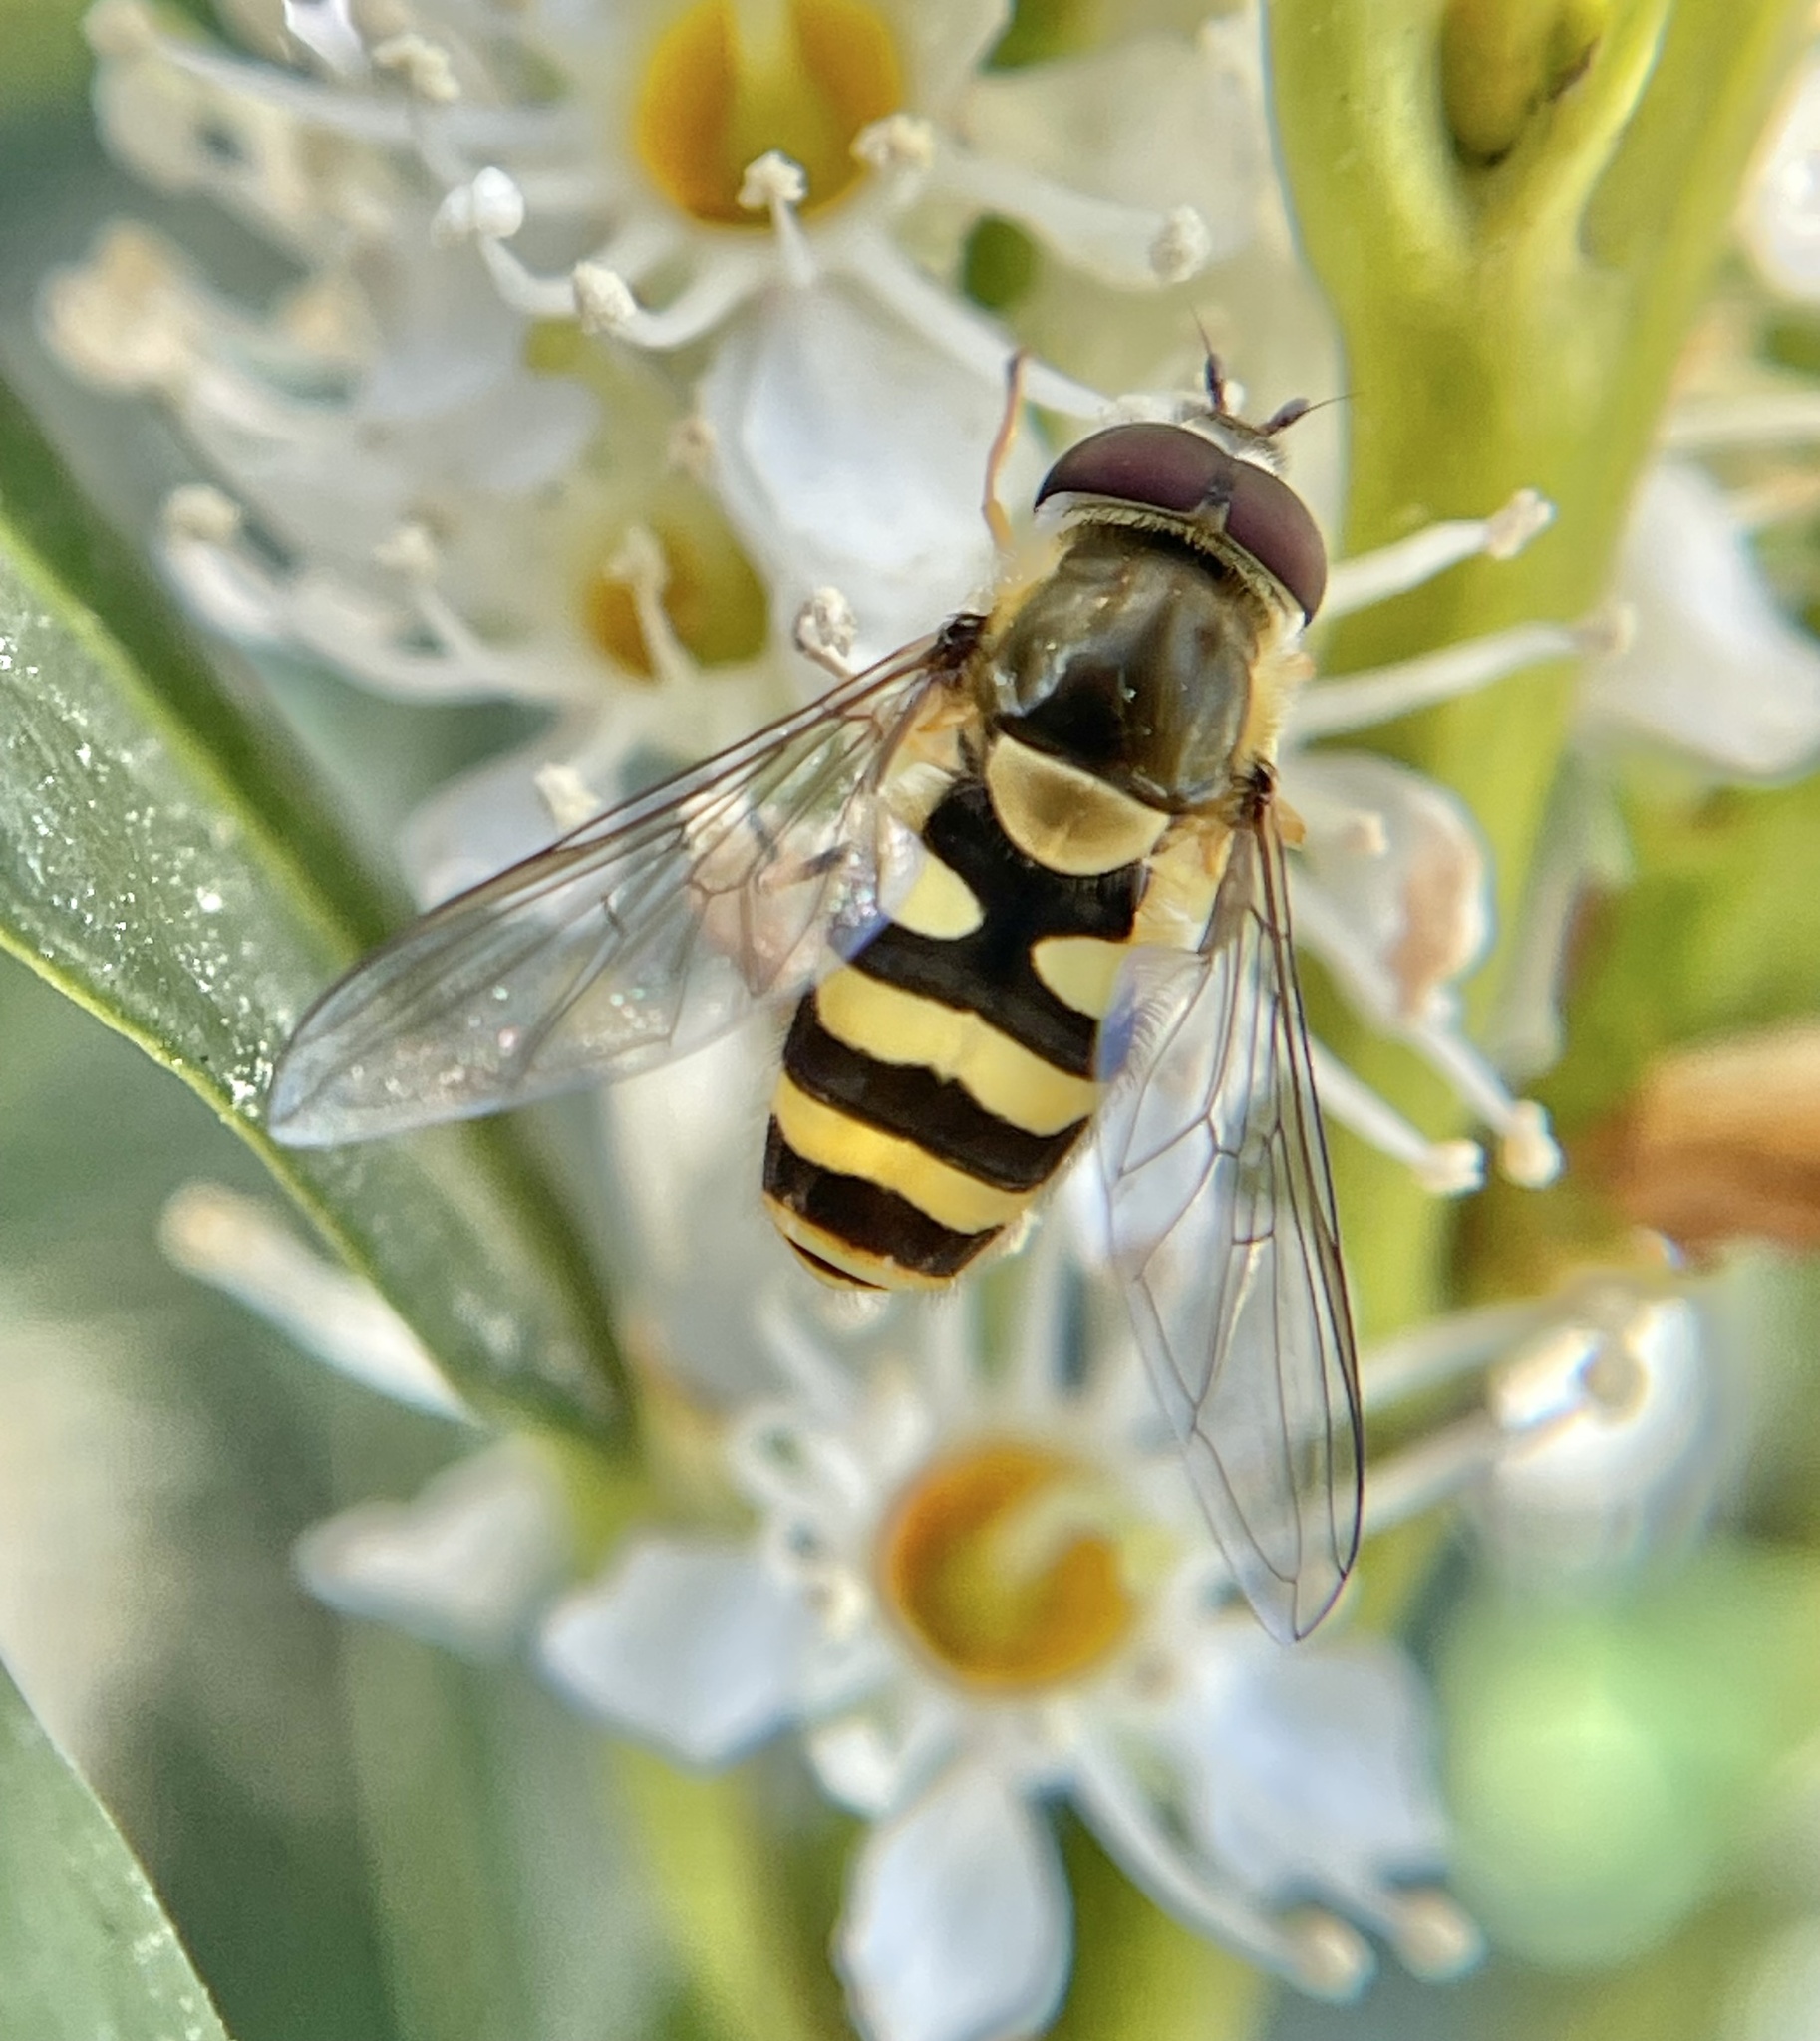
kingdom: Animalia
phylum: Arthropoda
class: Insecta
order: Diptera
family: Syrphidae
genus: Syrphus
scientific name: Syrphus
